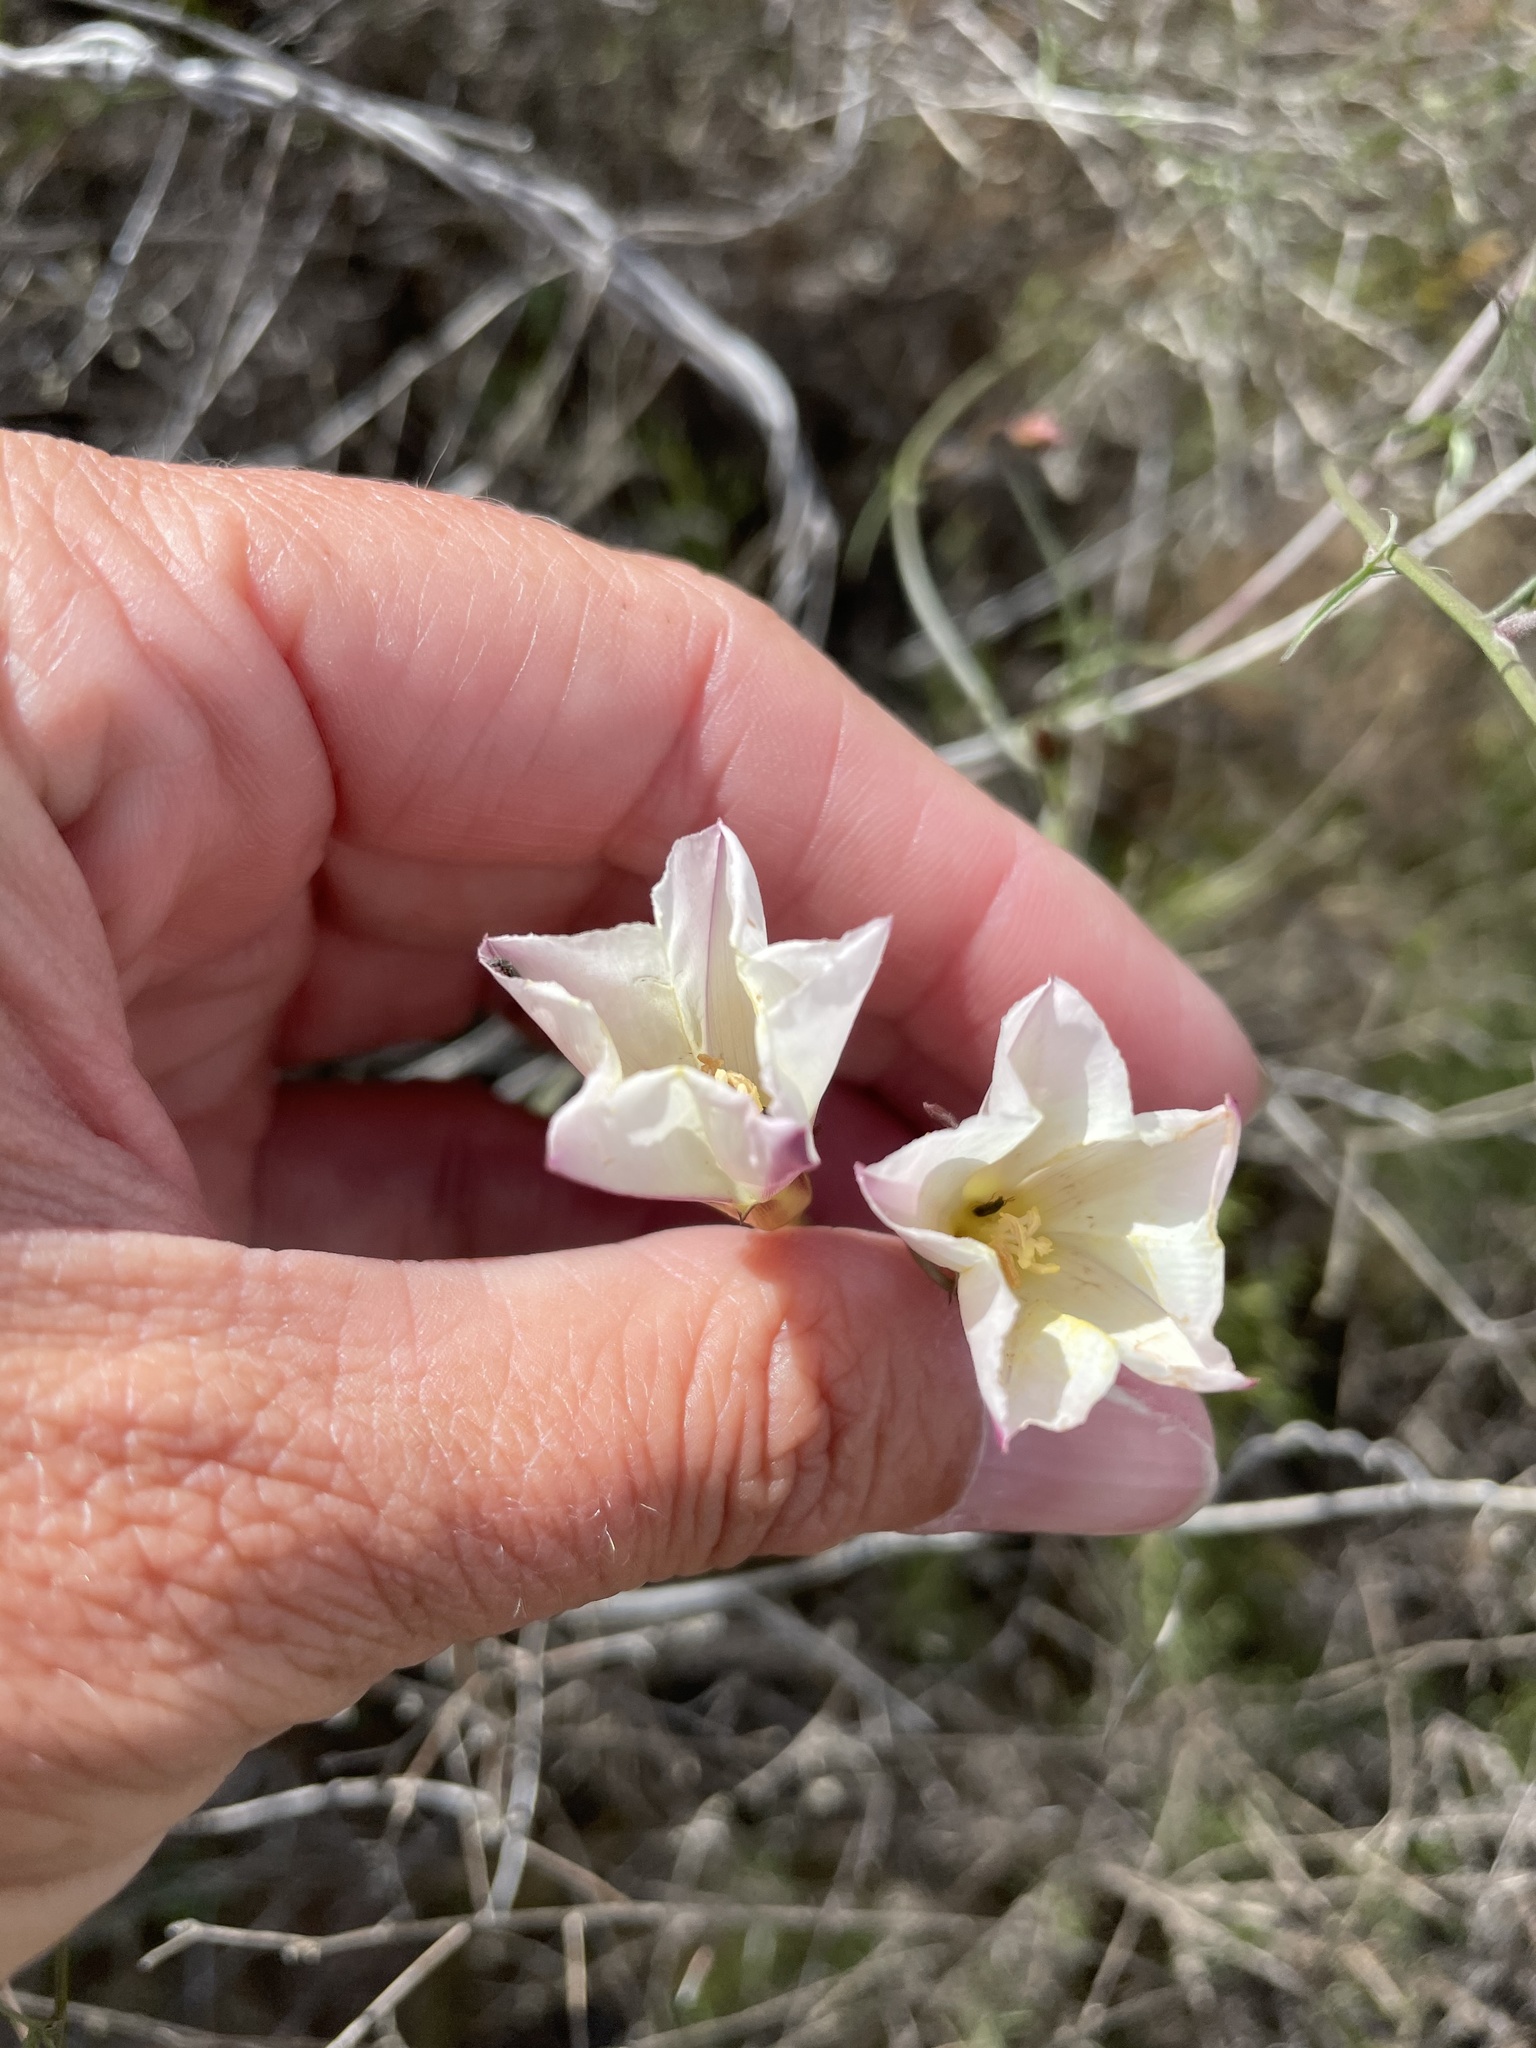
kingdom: Plantae
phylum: Tracheophyta
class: Magnoliopsida
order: Solanales
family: Convolvulaceae
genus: Calystegia
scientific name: Calystegia macrostegia
